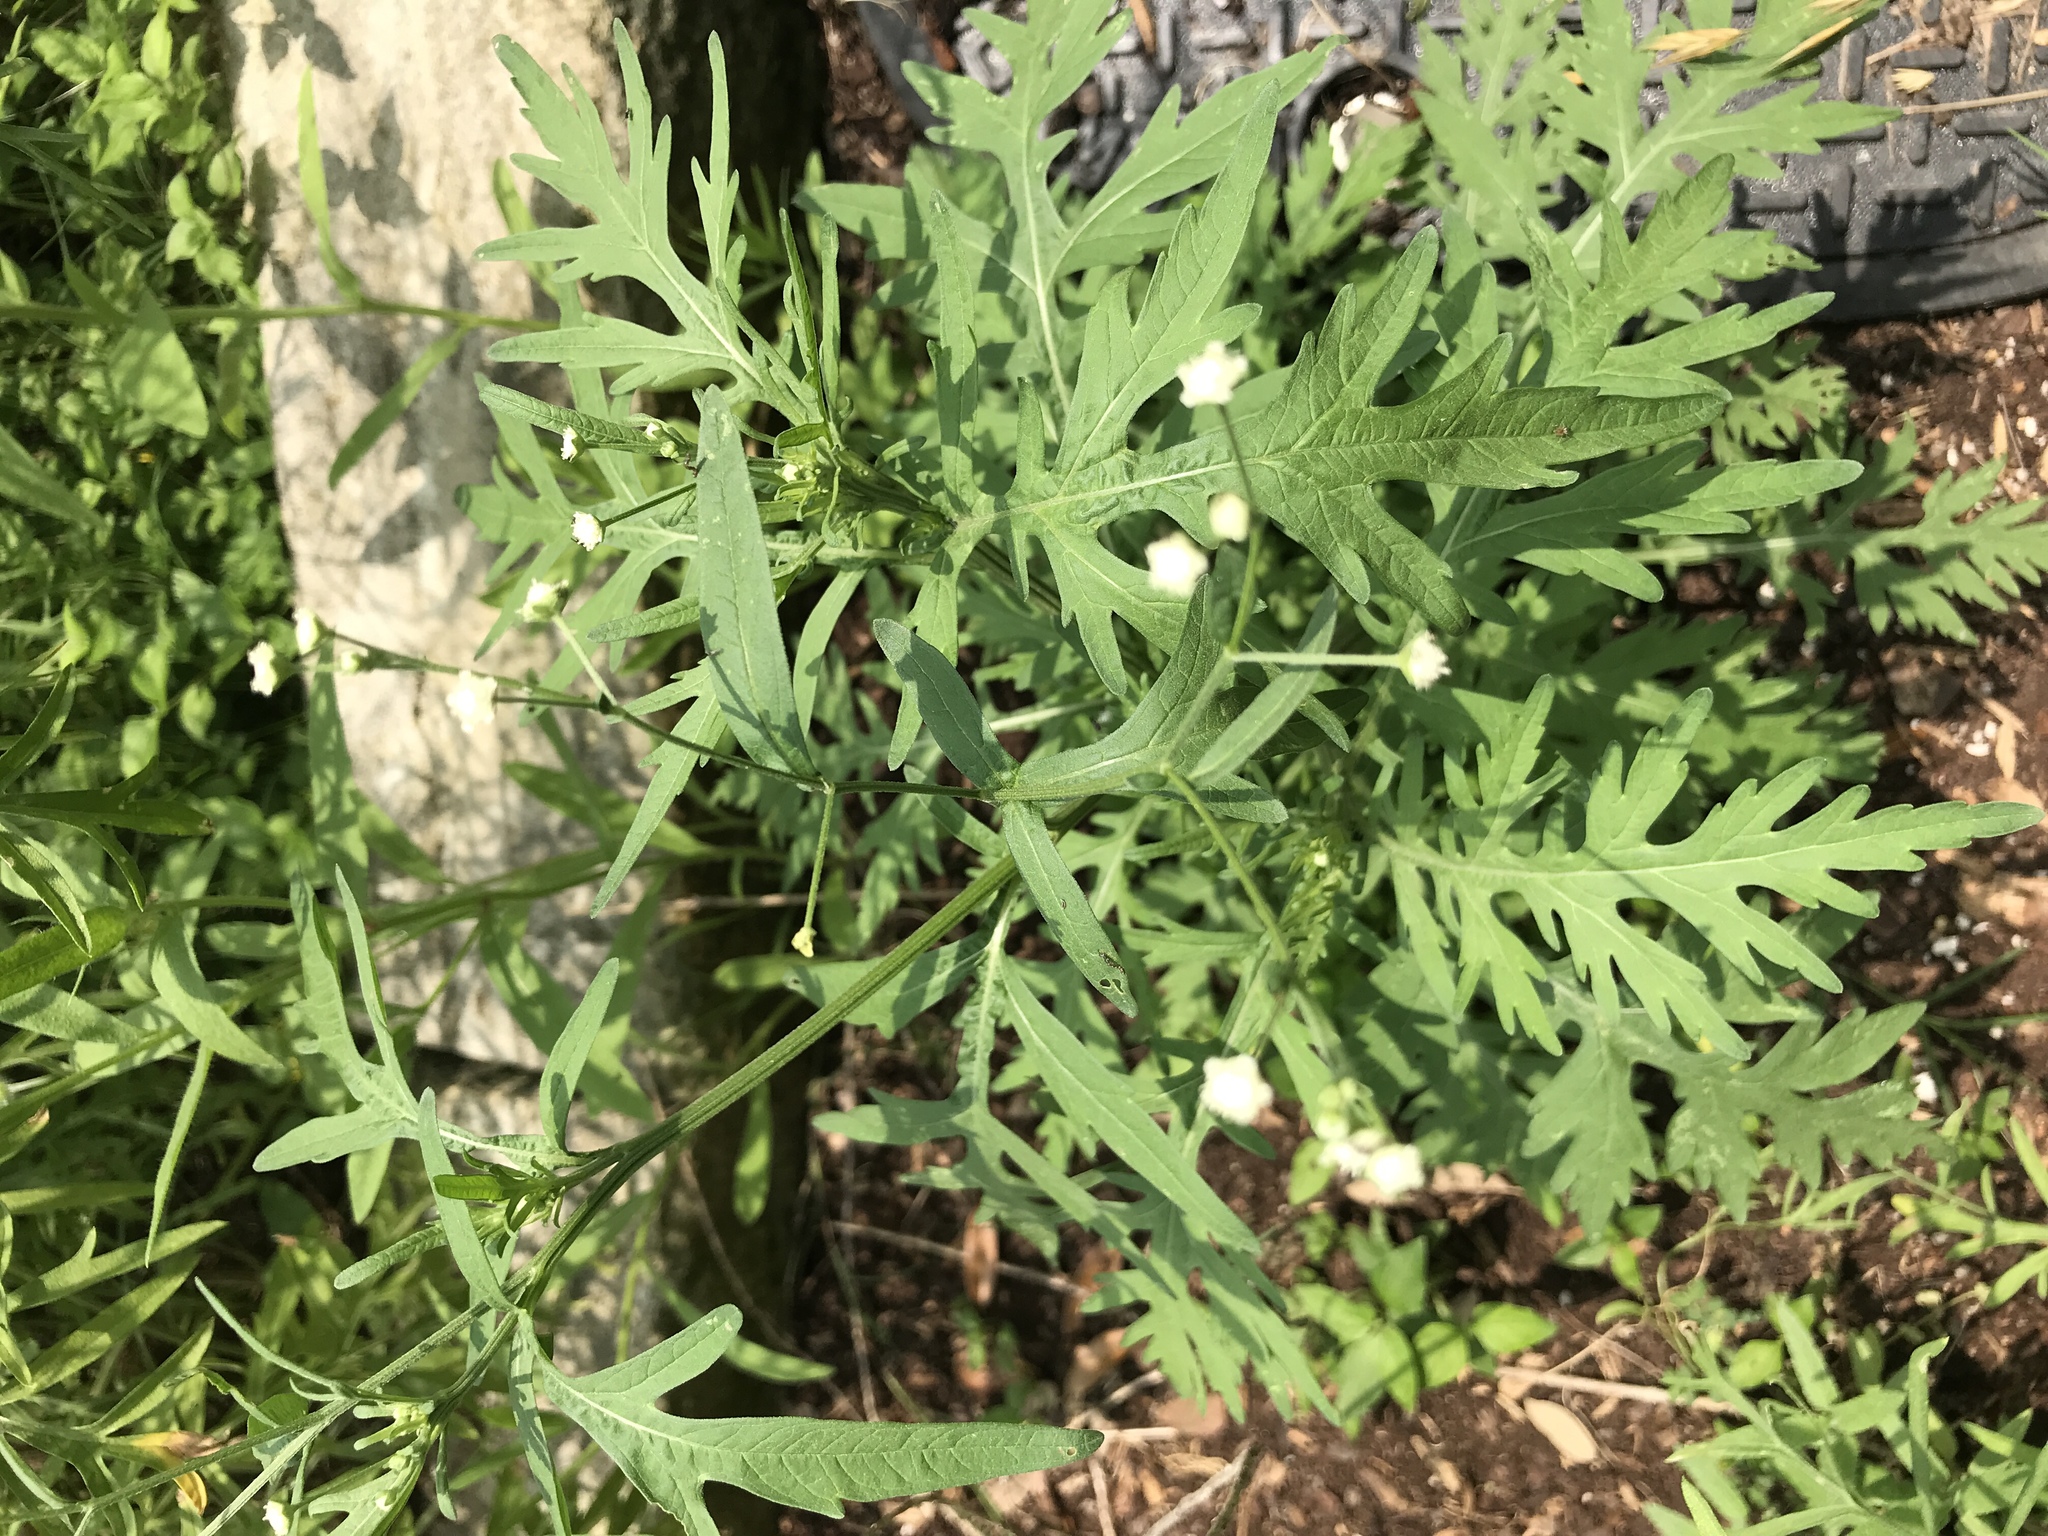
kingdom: Plantae
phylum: Tracheophyta
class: Magnoliopsida
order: Asterales
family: Asteraceae
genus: Parthenium
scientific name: Parthenium hysterophorus
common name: Santa maria feverfew
